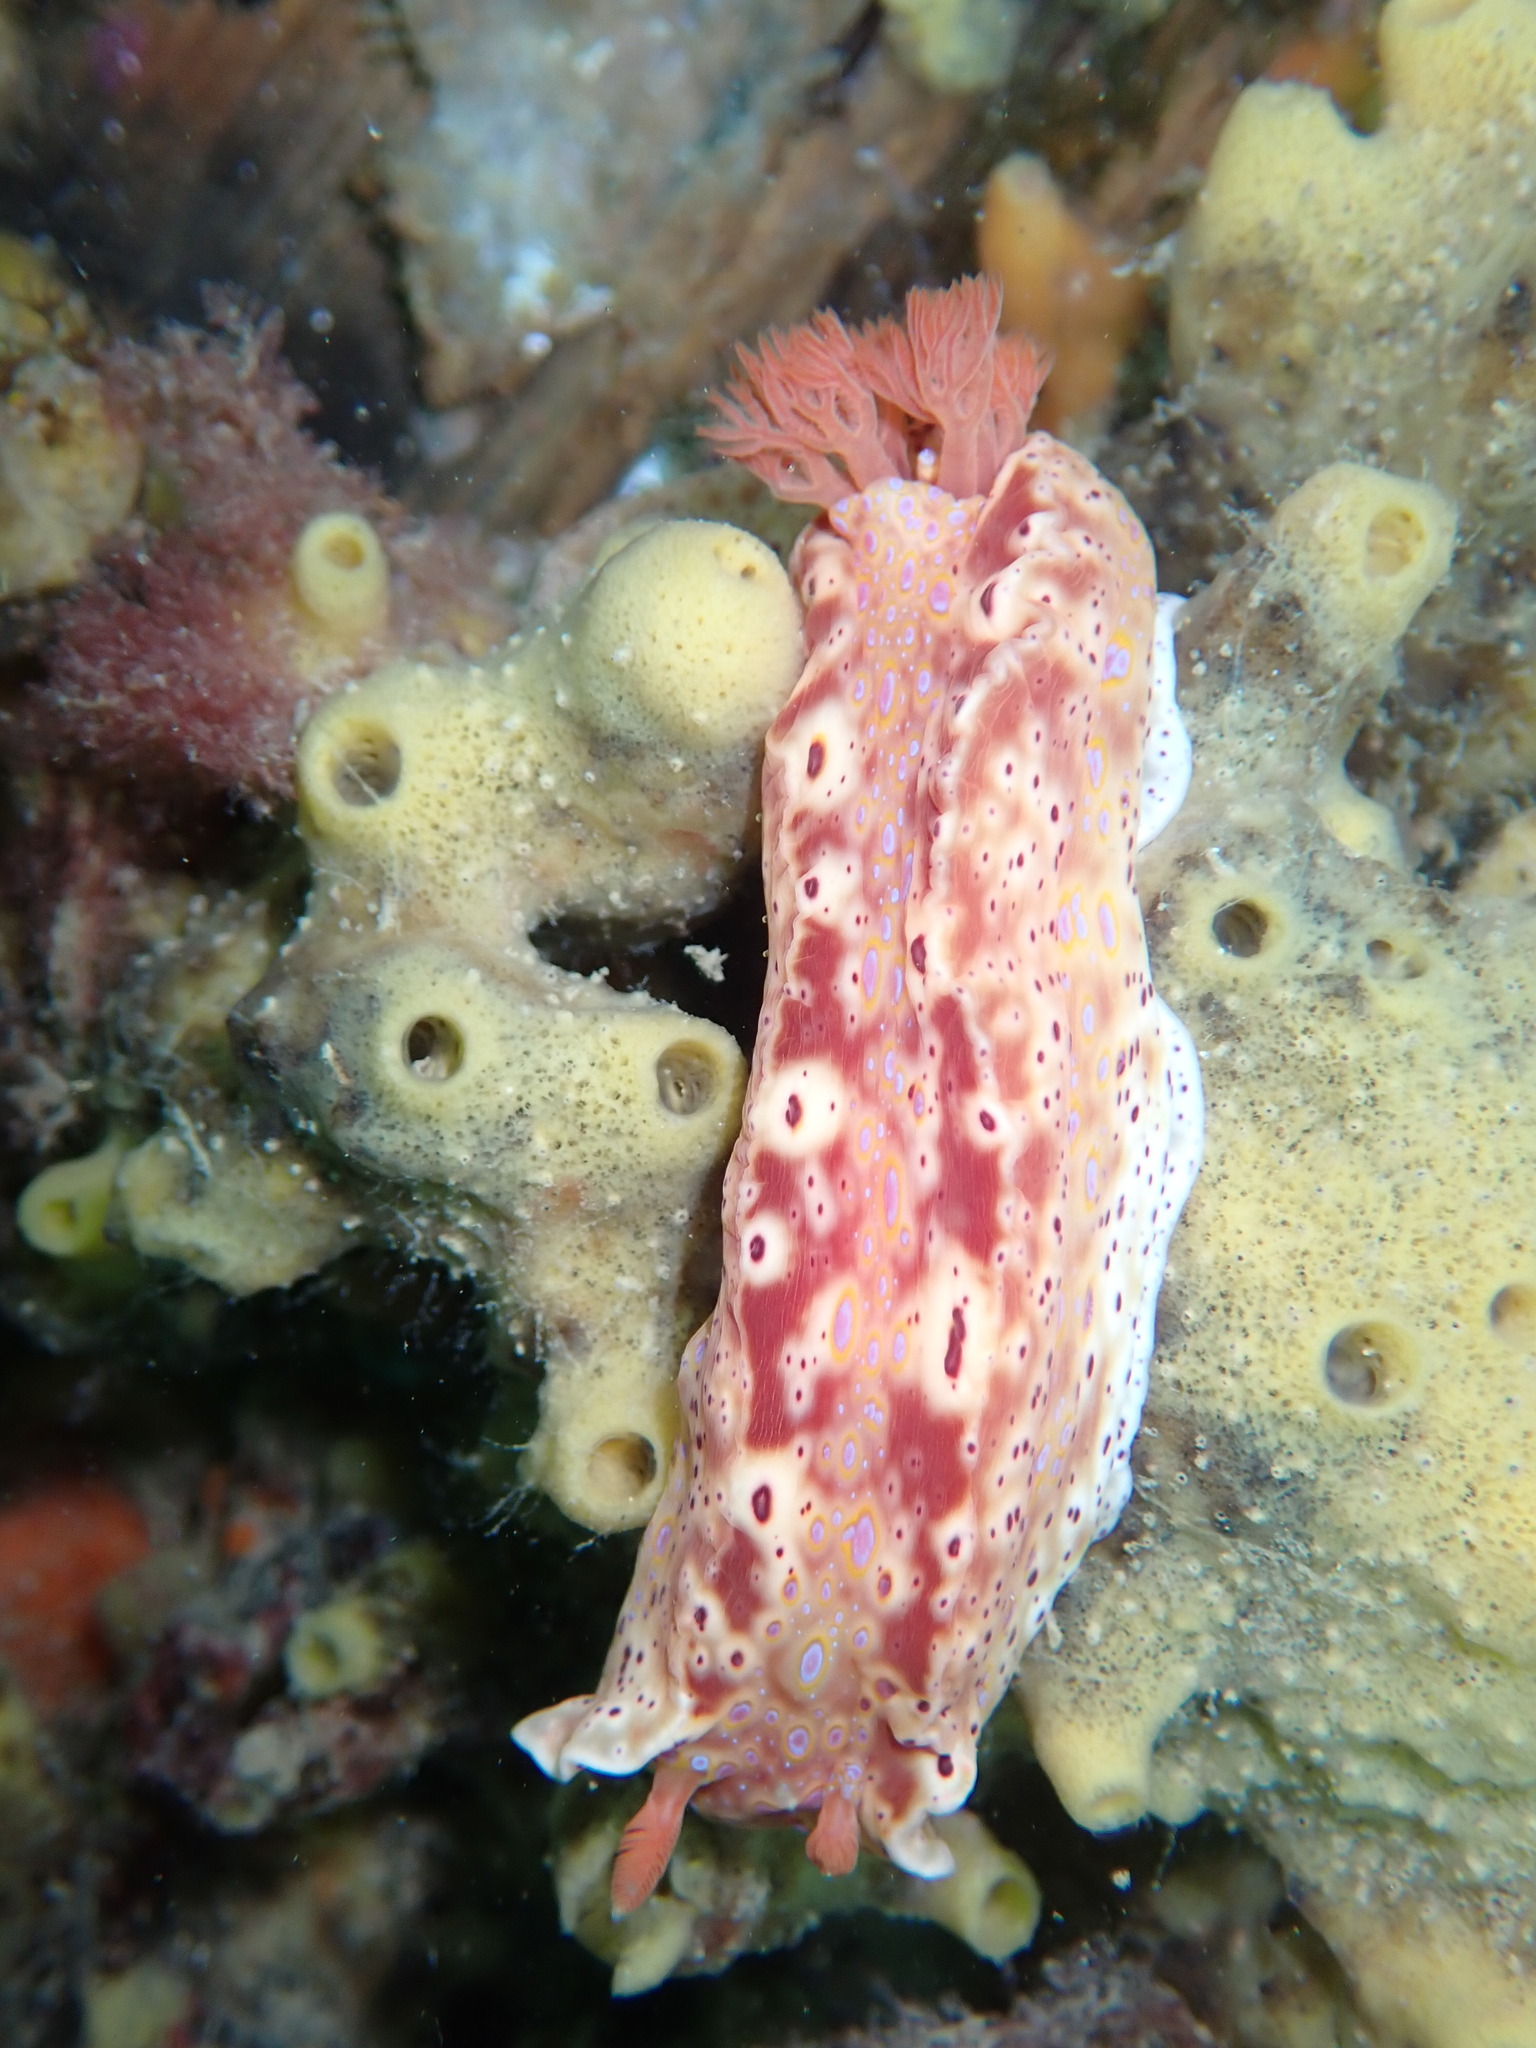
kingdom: Animalia
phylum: Mollusca
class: Gastropoda
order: Nudibranchia
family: Chromodorididae
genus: Ceratosoma
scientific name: Ceratosoma brevicaudatum
